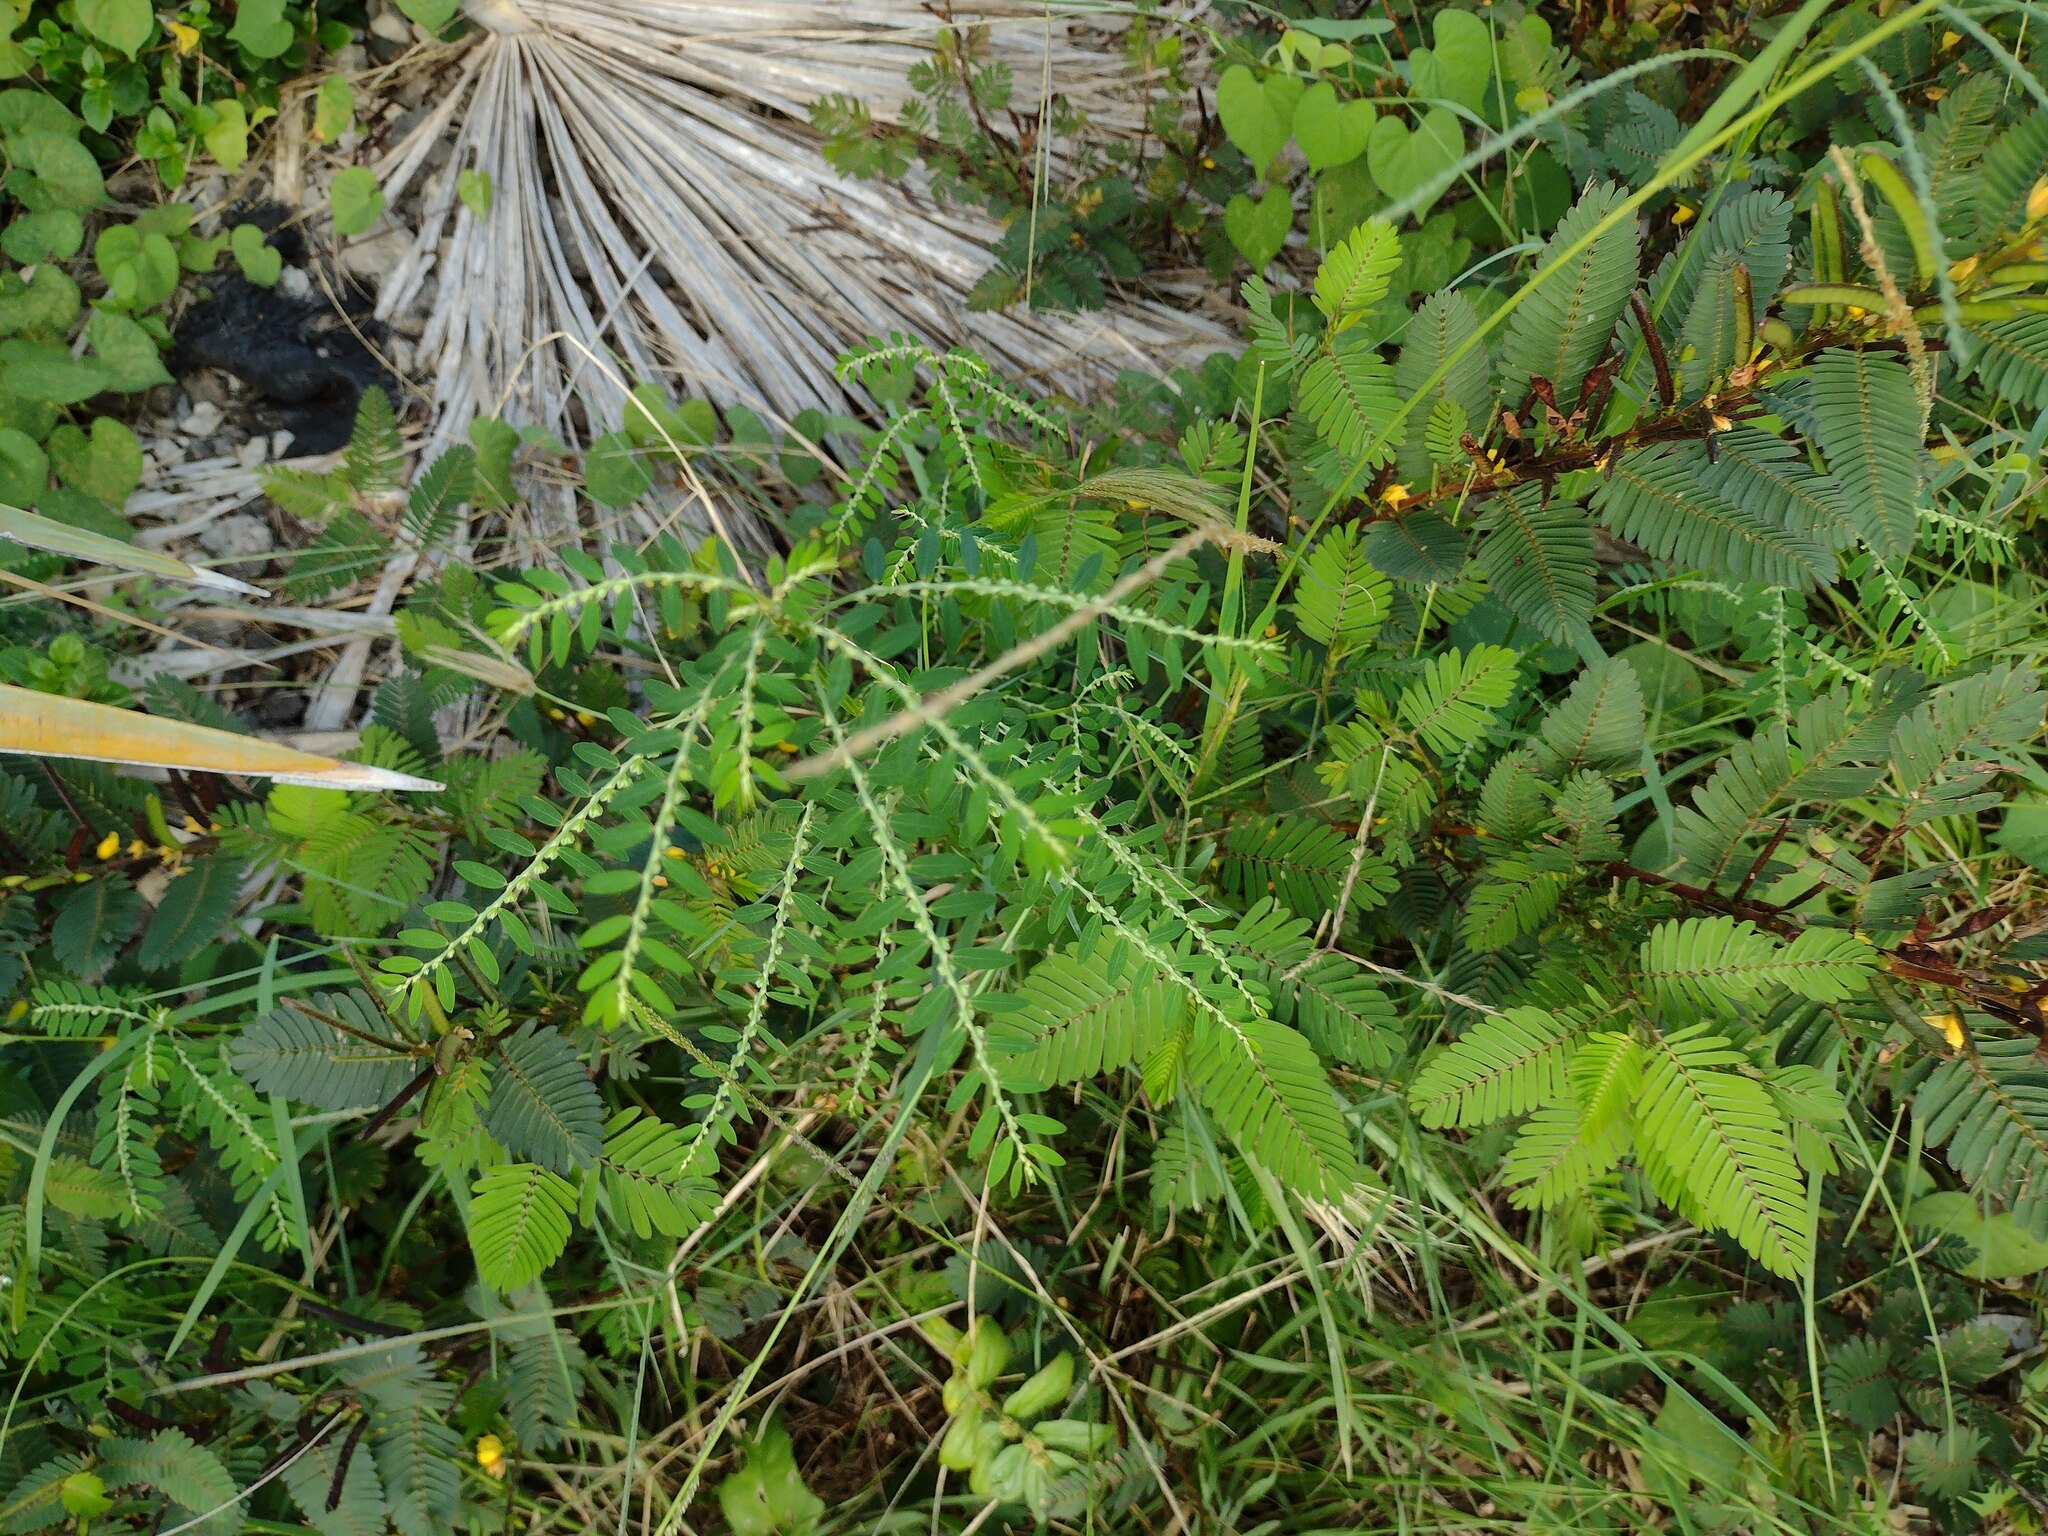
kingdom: Plantae
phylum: Tracheophyta
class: Magnoliopsida
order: Malpighiales
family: Phyllanthaceae
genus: Phyllanthus
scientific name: Phyllanthus debilis
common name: Niruri
